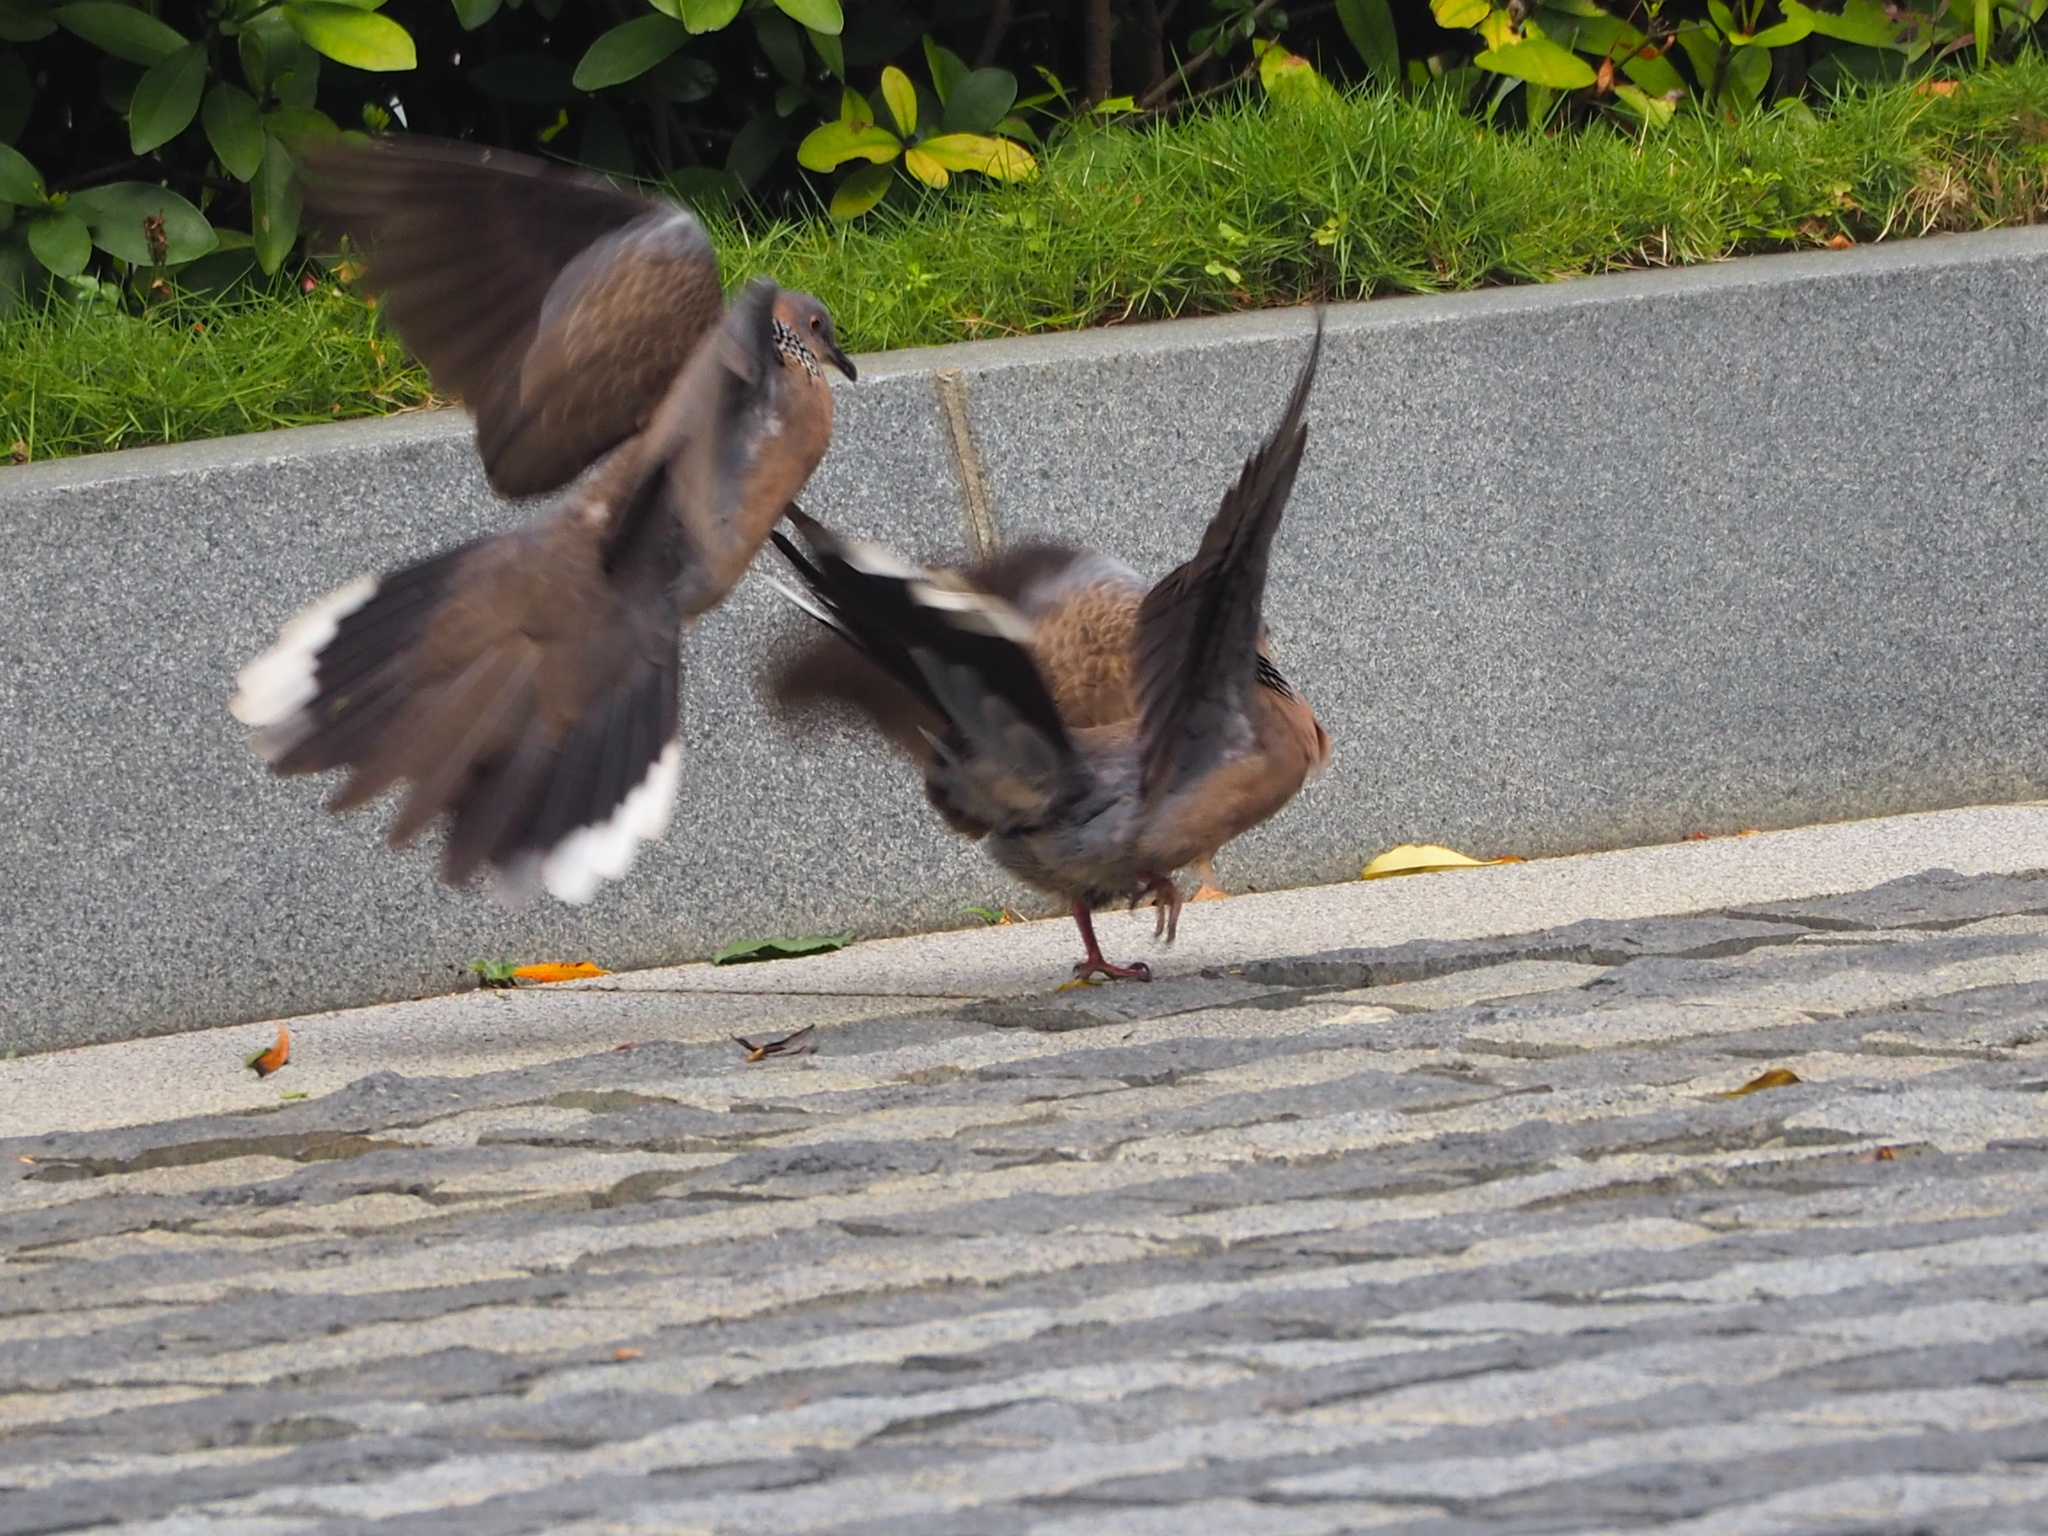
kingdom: Animalia
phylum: Chordata
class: Aves
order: Columbiformes
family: Columbidae
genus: Spilopelia
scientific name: Spilopelia chinensis
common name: Spotted dove
